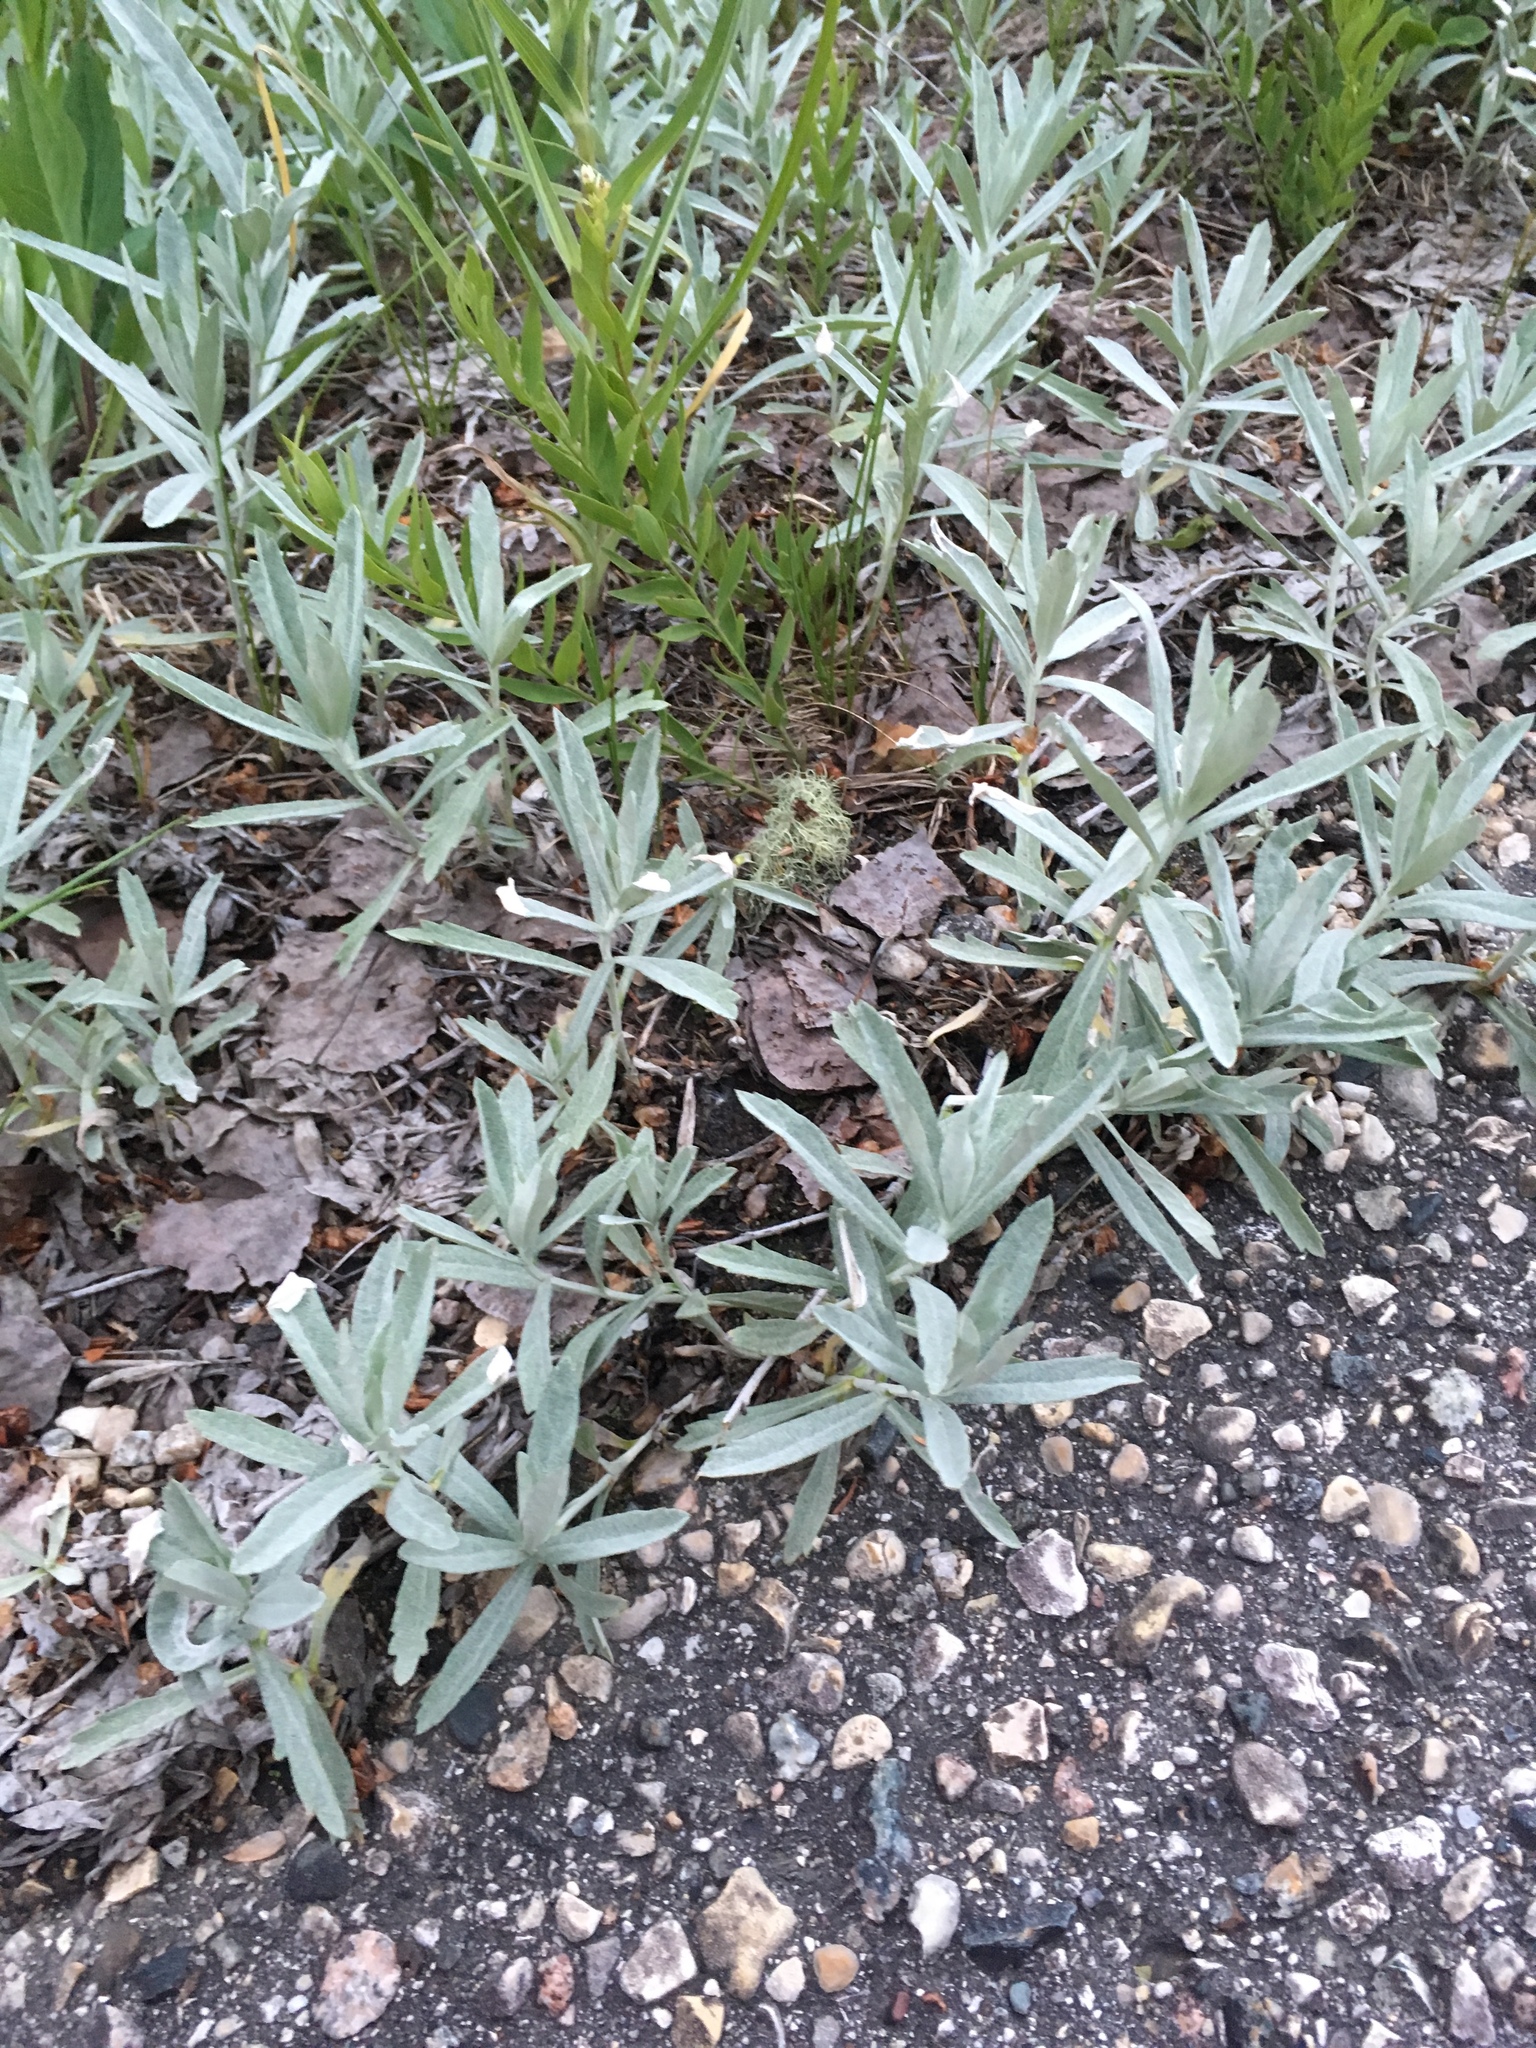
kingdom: Plantae
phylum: Tracheophyta
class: Magnoliopsida
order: Asterales
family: Asteraceae
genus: Artemisia
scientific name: Artemisia ludoviciana
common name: Western mugwort
